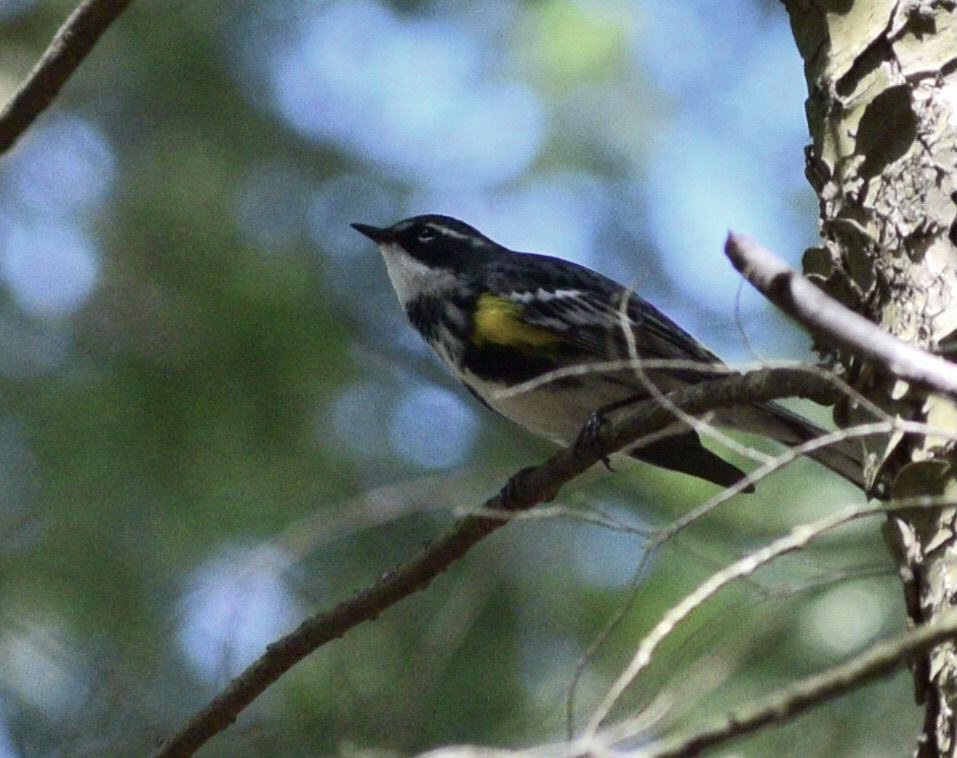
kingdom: Animalia
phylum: Chordata
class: Aves
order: Passeriformes
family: Parulidae
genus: Setophaga
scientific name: Setophaga coronata
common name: Myrtle warbler
